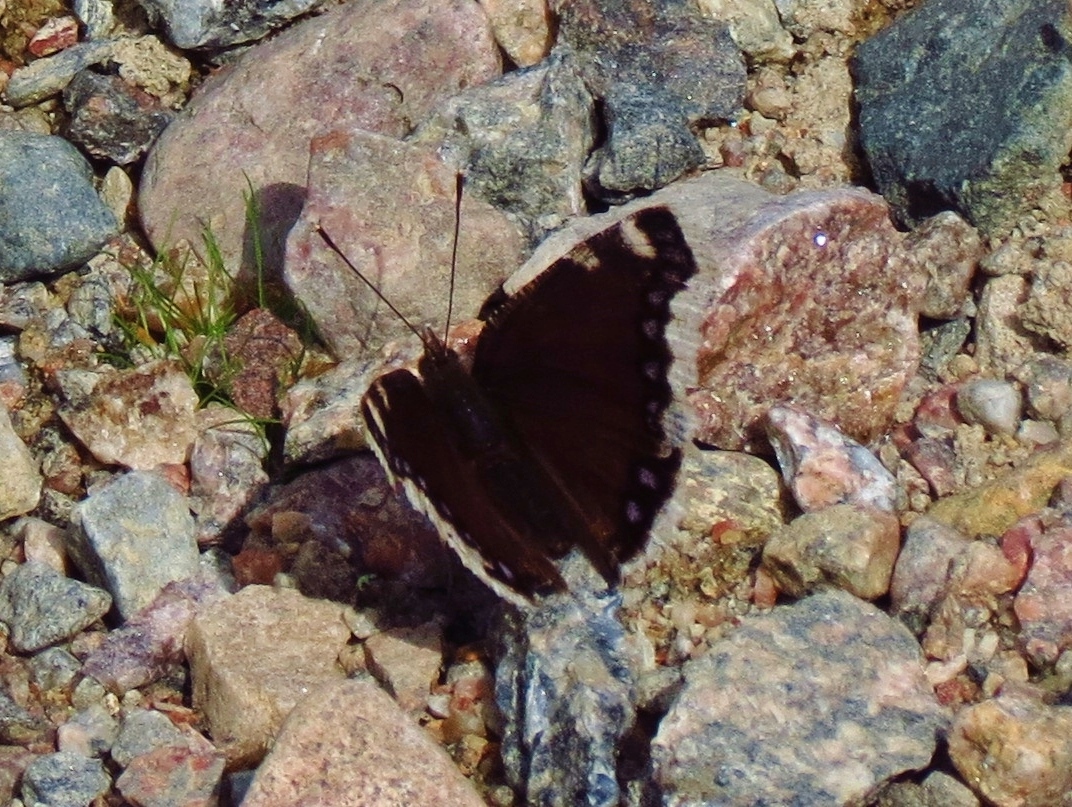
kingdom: Animalia
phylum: Arthropoda
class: Insecta
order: Lepidoptera
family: Nymphalidae
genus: Nymphalis
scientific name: Nymphalis antiopa
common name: Camberwell beauty
